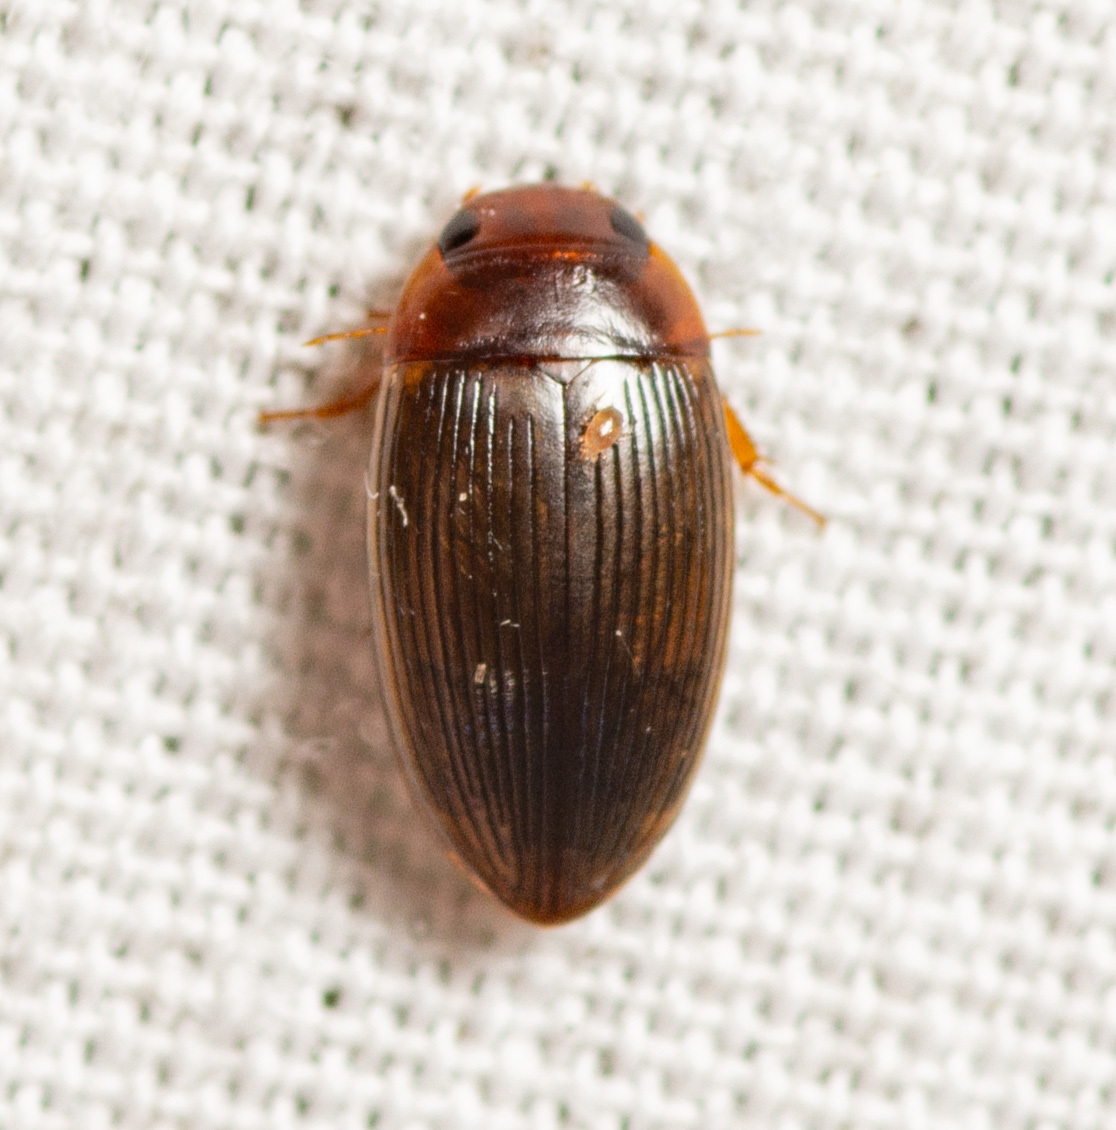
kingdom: Animalia
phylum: Arthropoda
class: Insecta
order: Coleoptera
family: Dytiscidae
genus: Copelatus
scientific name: Copelatus glyphicus
